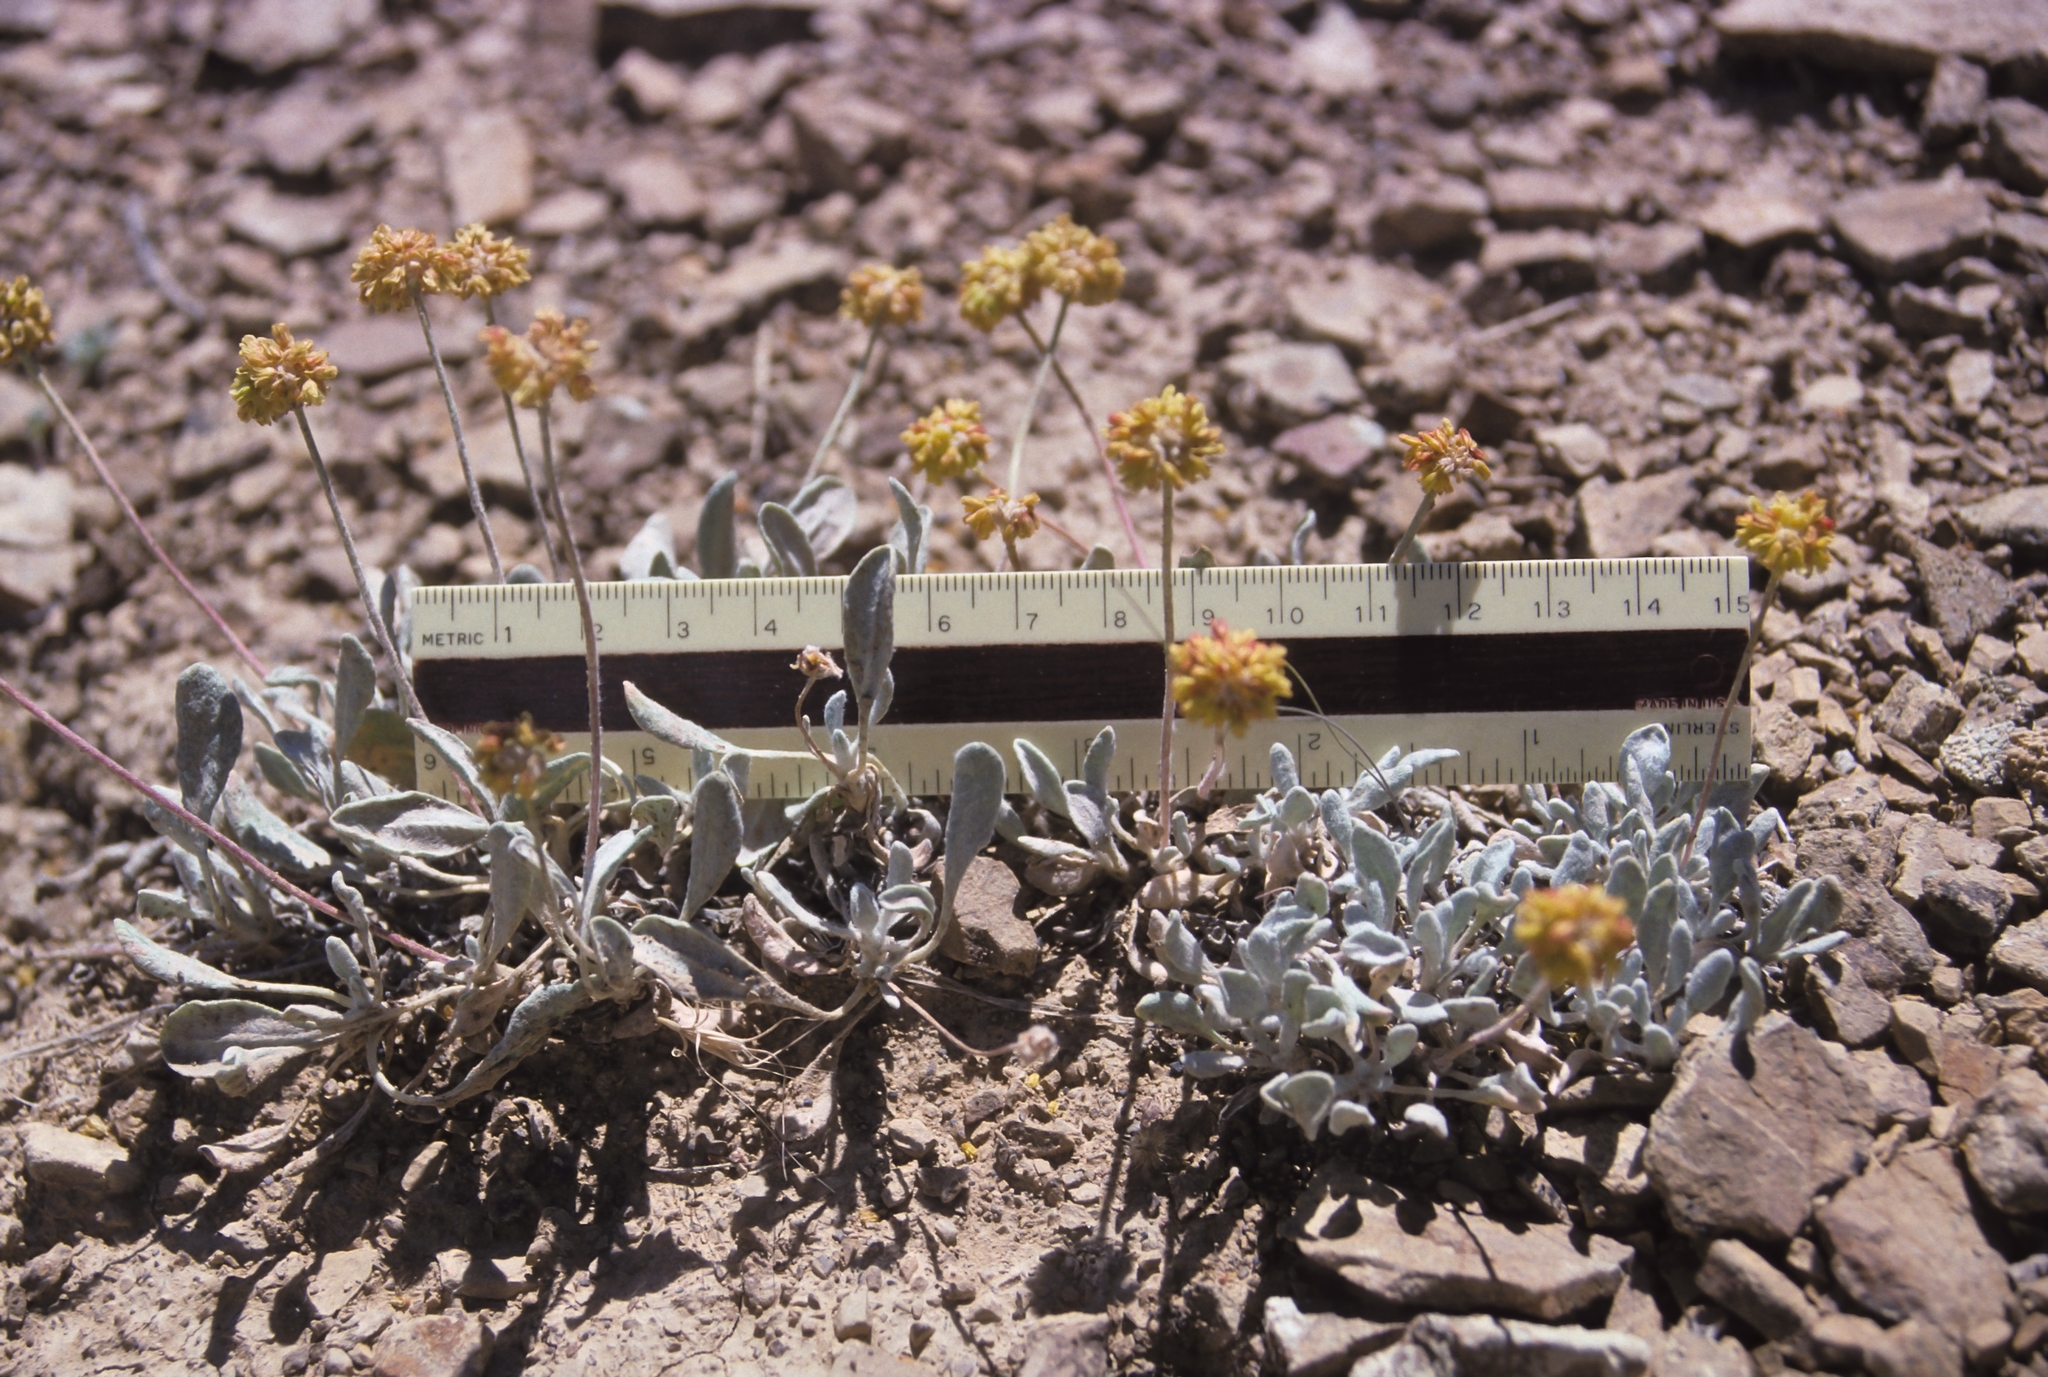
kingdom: Plantae
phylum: Tracheophyta
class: Magnoliopsida
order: Caryophyllales
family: Polygonaceae
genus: Eriogonum
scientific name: Eriogonum desertorum
